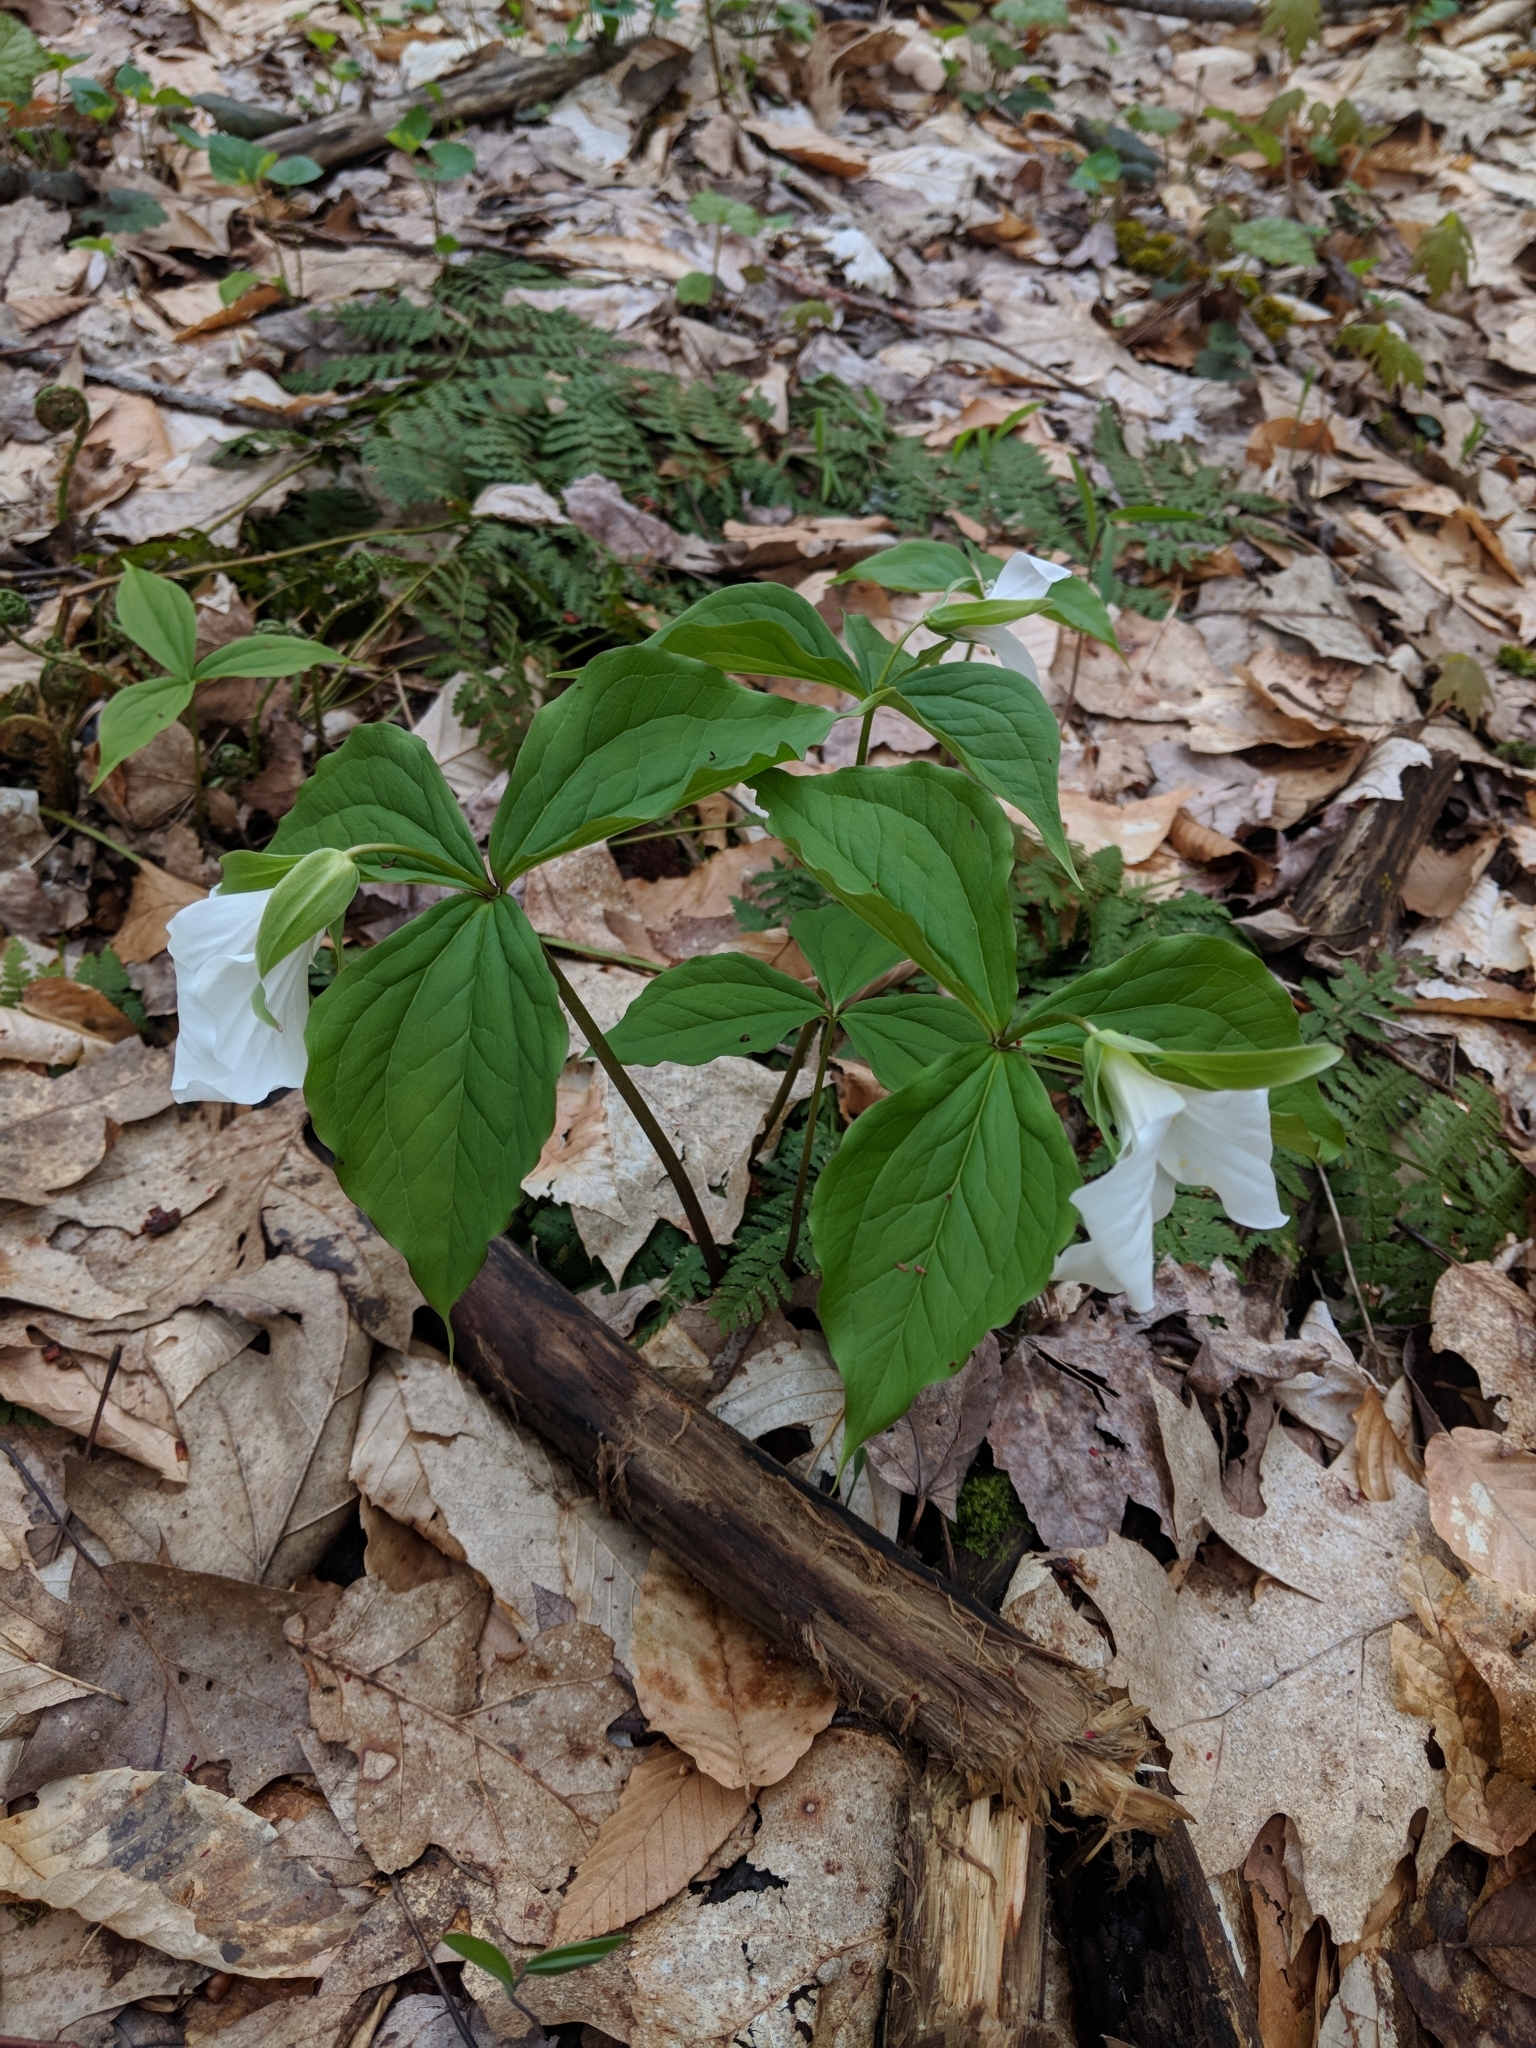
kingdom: Plantae
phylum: Tracheophyta
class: Liliopsida
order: Liliales
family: Melanthiaceae
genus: Trillium
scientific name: Trillium grandiflorum
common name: Great white trillium
